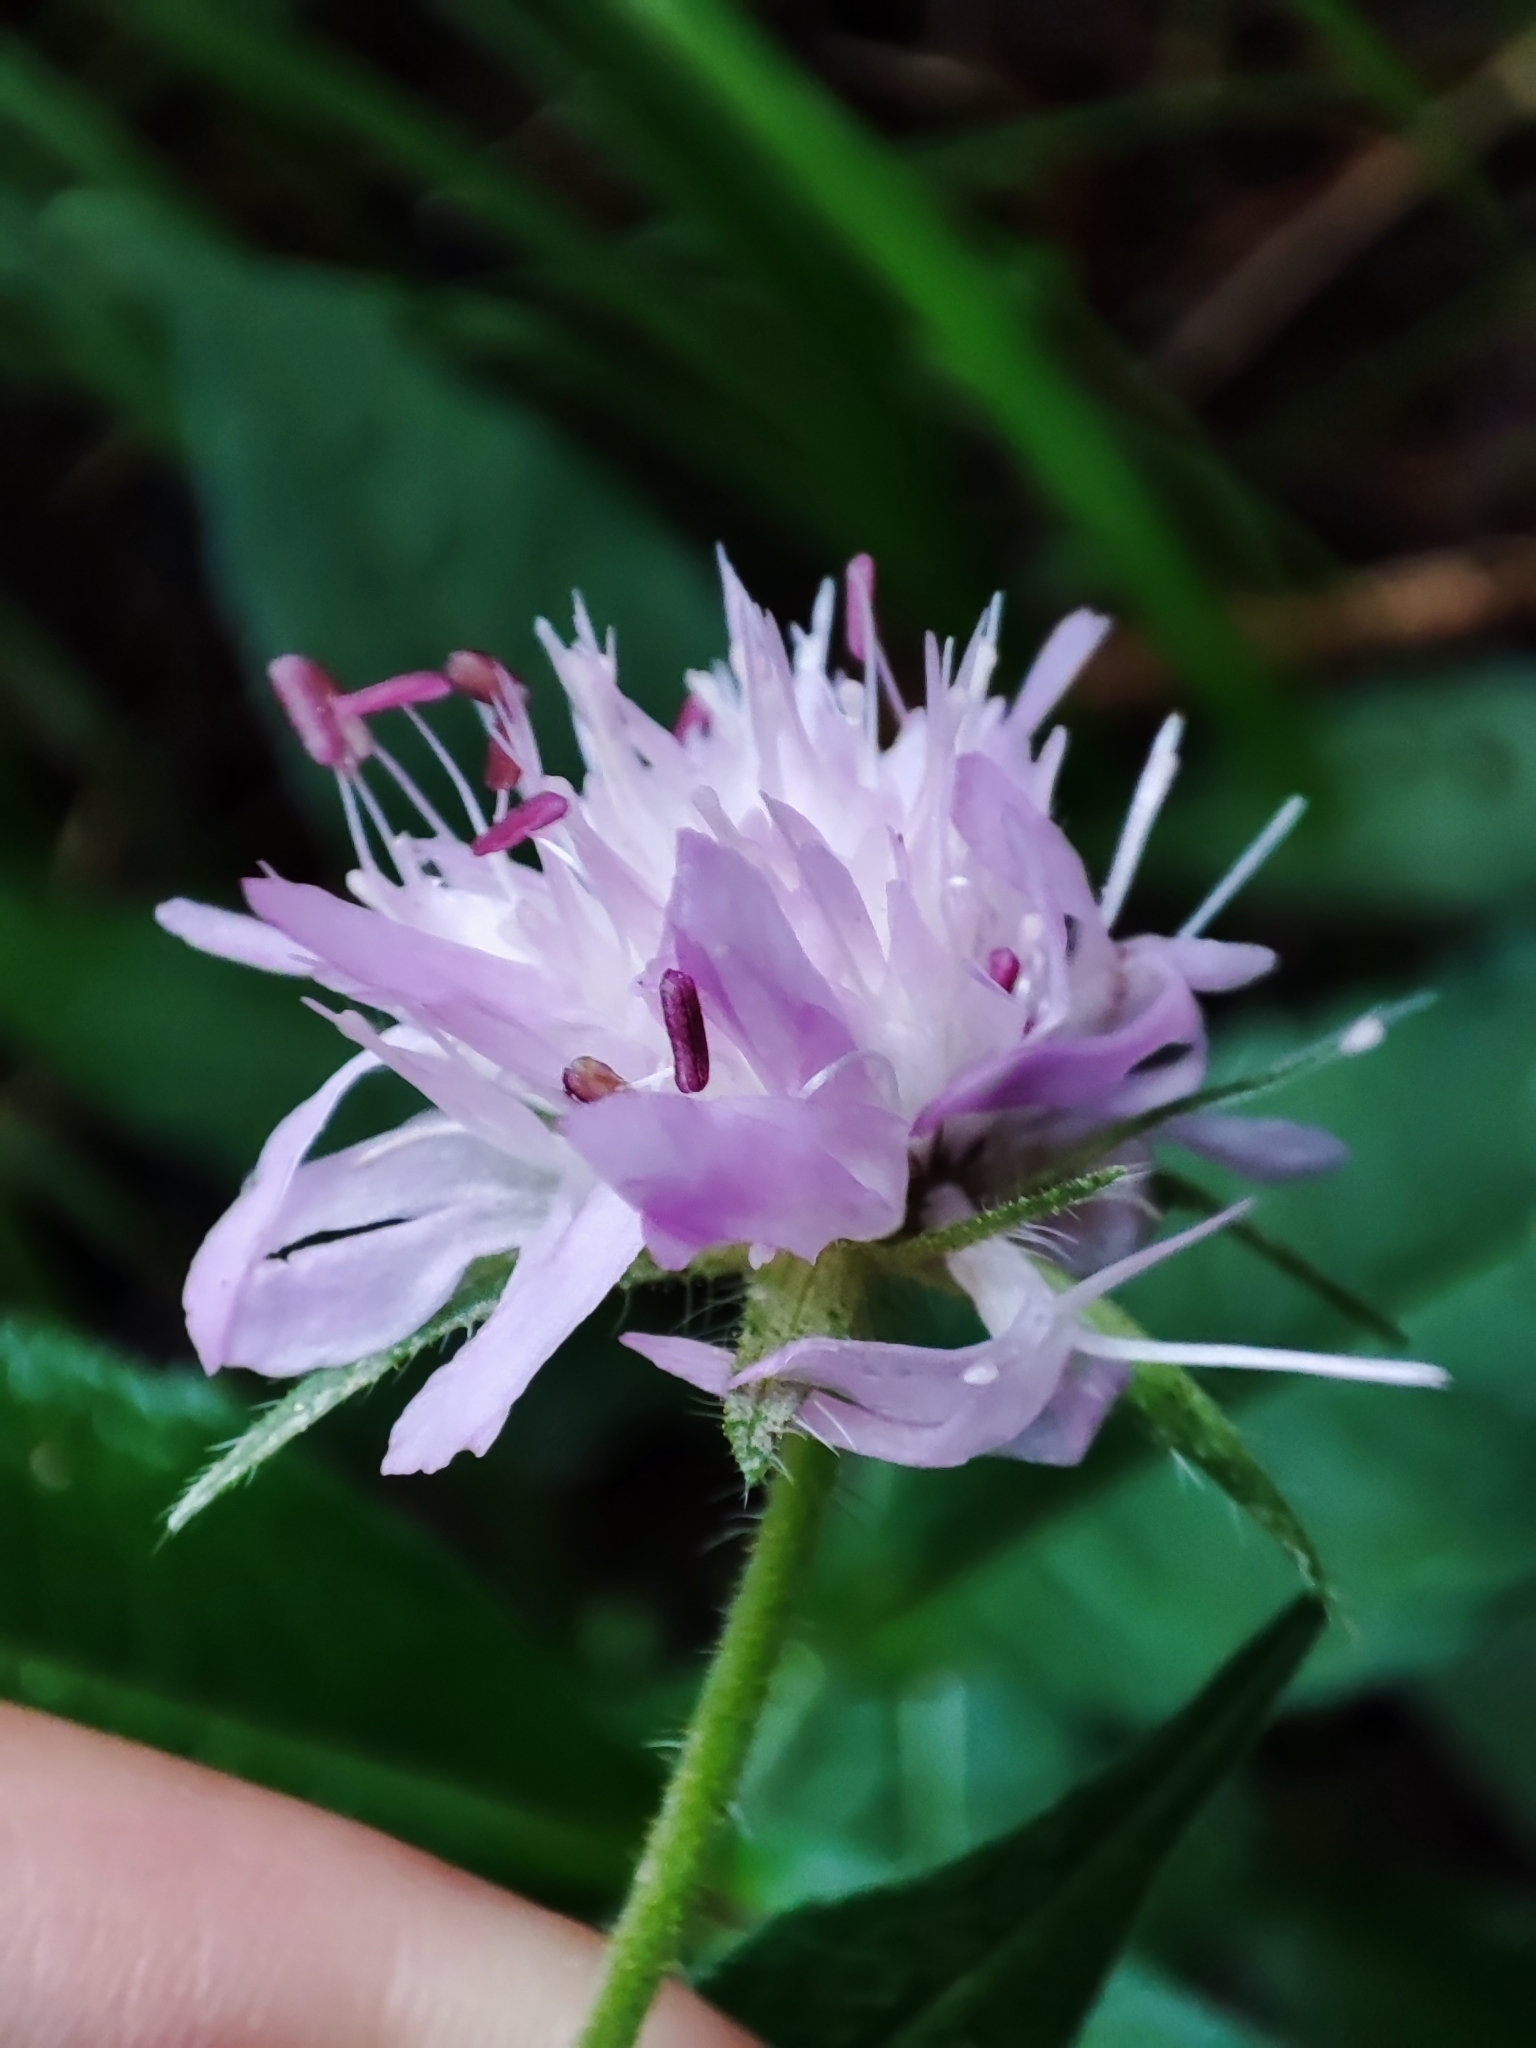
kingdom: Plantae
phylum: Tracheophyta
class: Magnoliopsida
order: Dipsacales
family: Caprifoliaceae
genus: Knautia
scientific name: Knautia dipsacifolia
